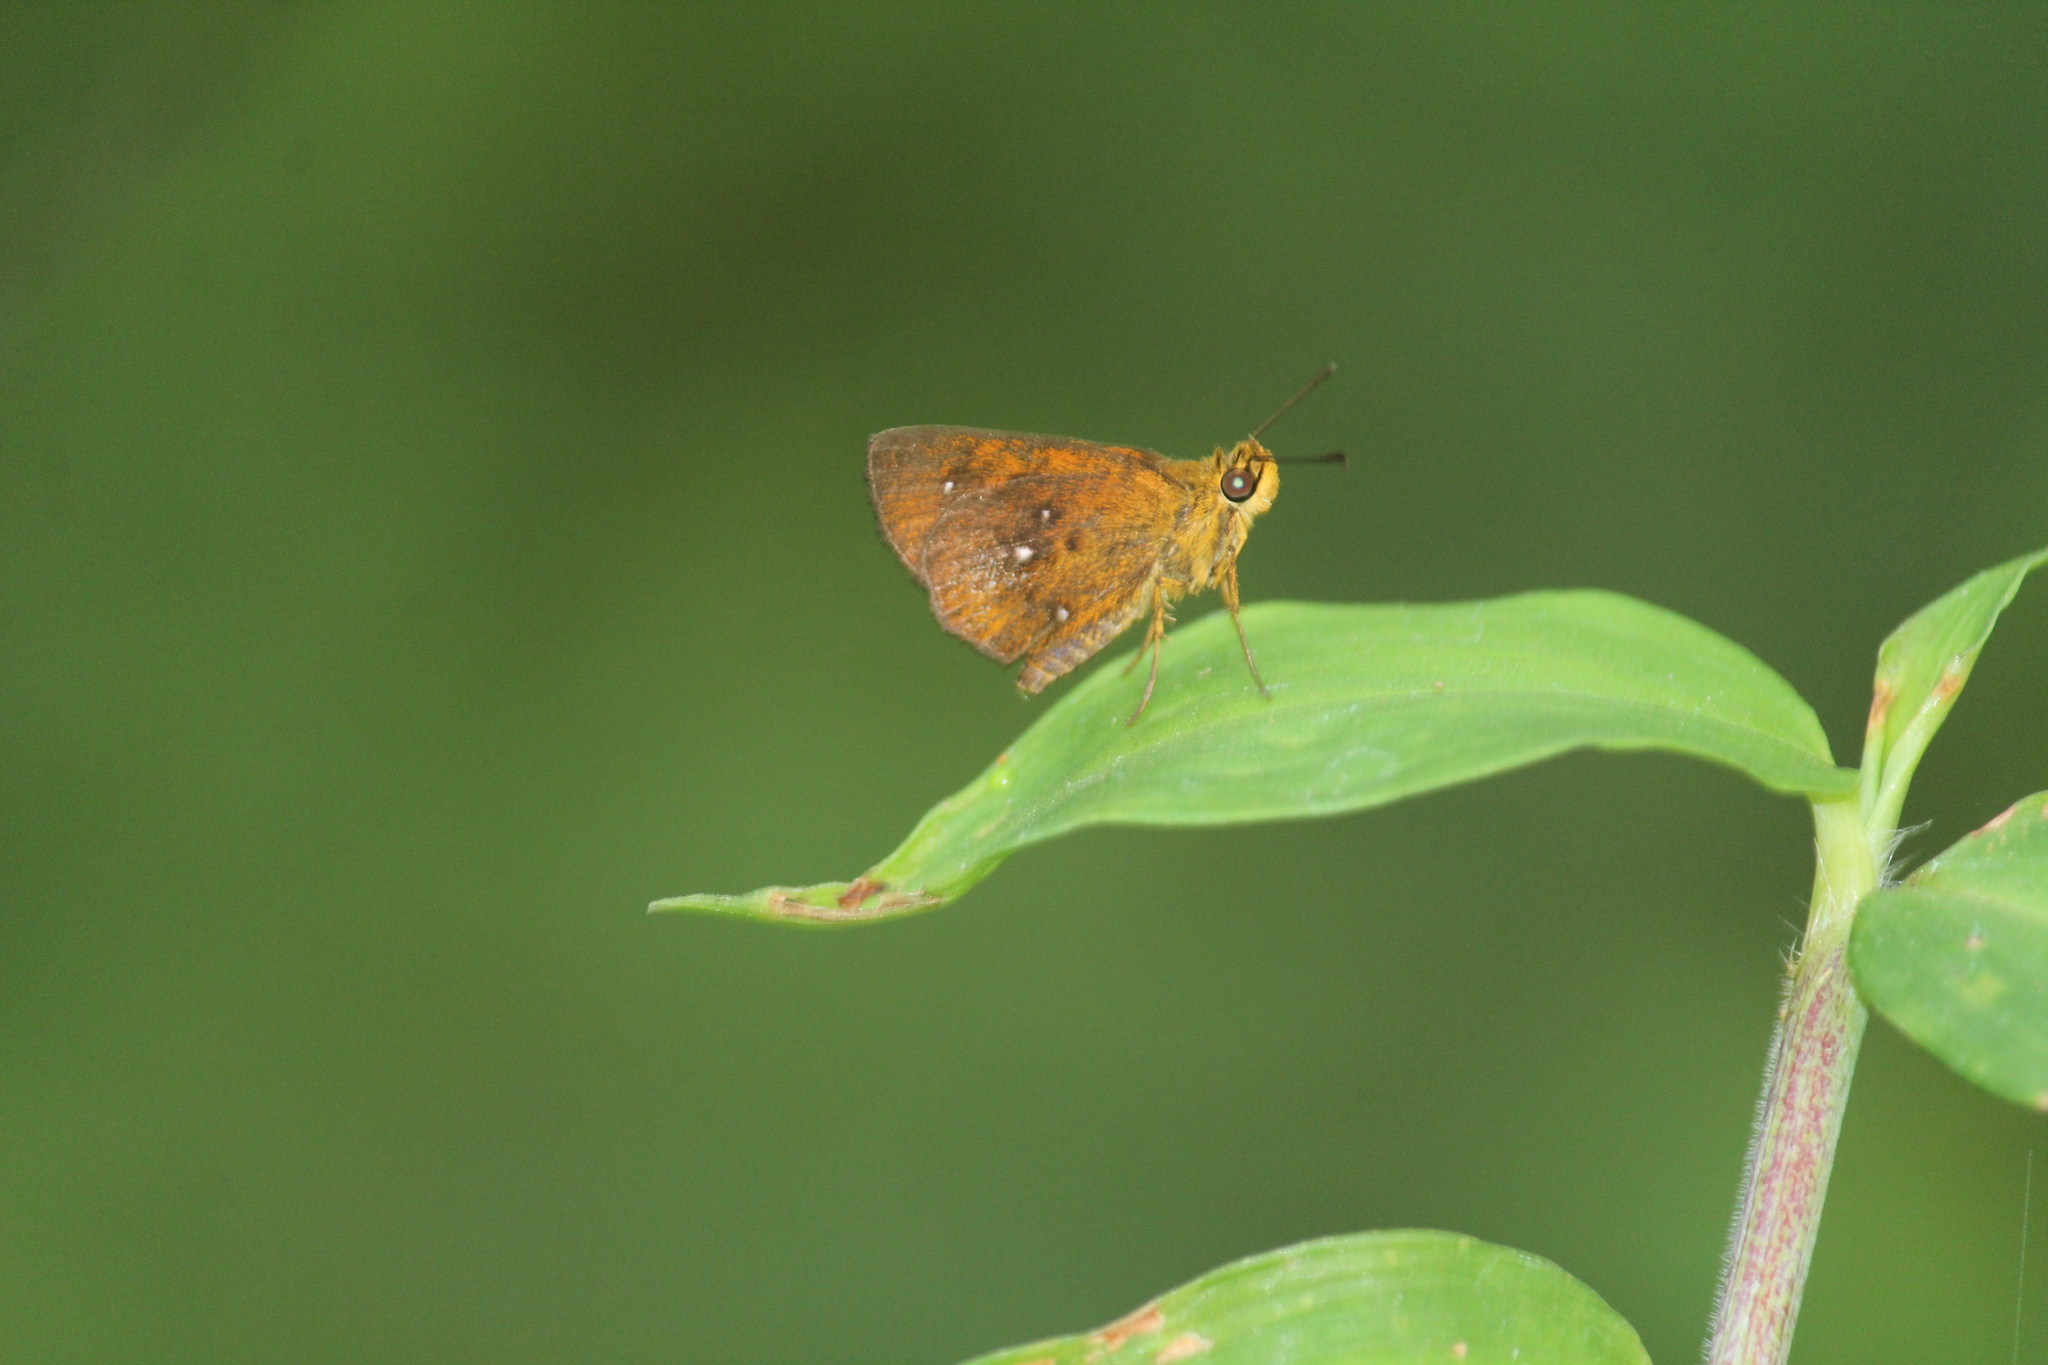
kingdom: Animalia
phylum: Arthropoda
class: Insecta
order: Lepidoptera
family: Hesperiidae
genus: Iambrix
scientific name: Iambrix salsala
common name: Chestnut bob
